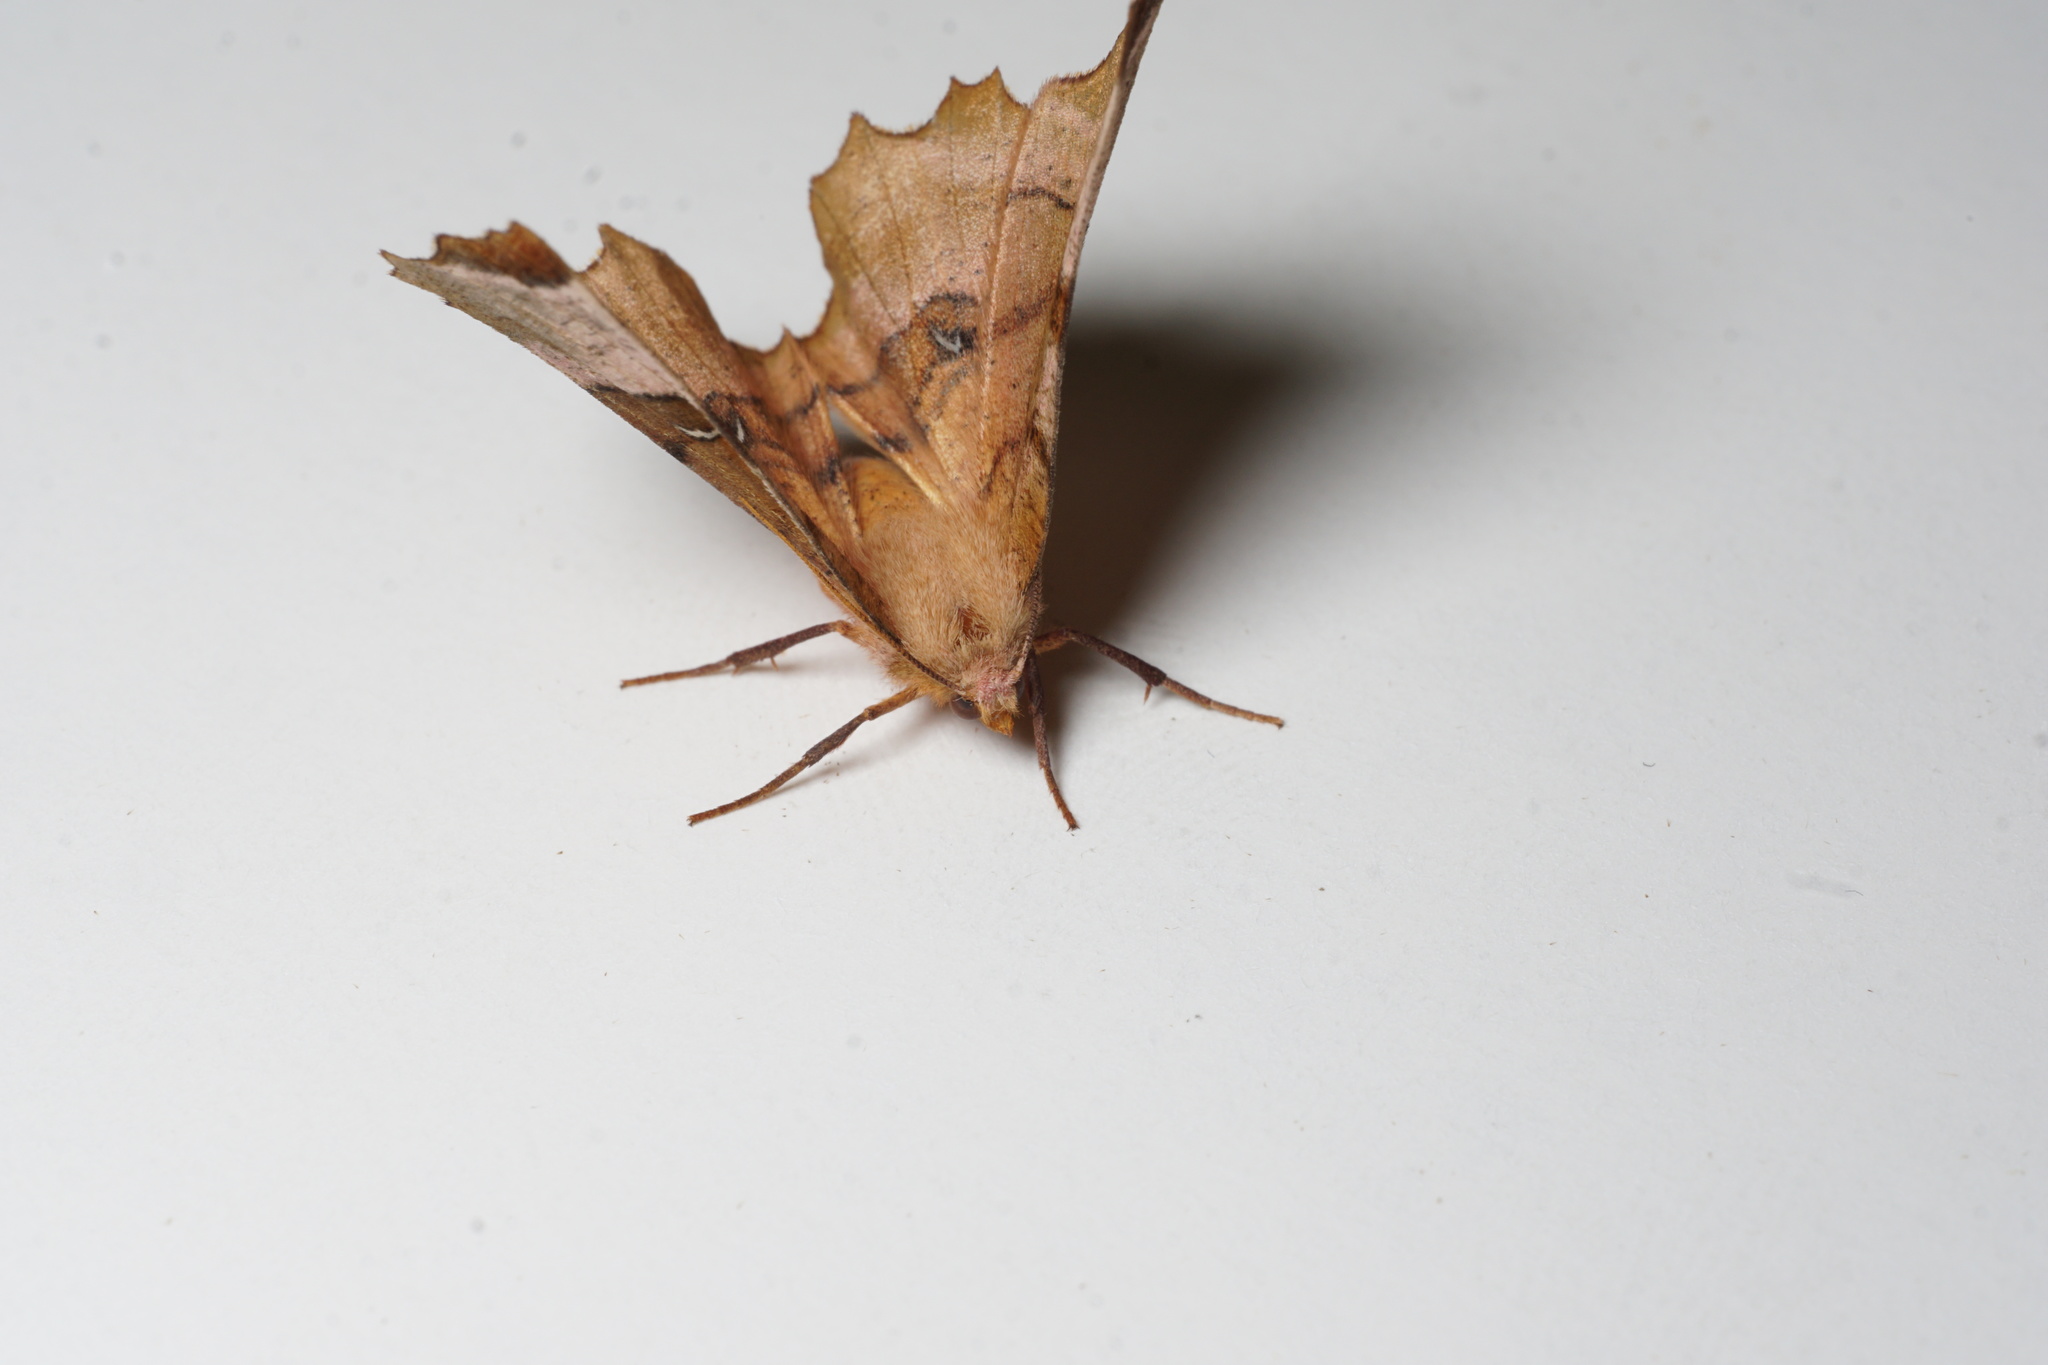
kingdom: Animalia
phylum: Arthropoda
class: Insecta
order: Lepidoptera
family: Geometridae
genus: Selenia
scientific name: Selenia lunularia
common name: Lunar thorn
